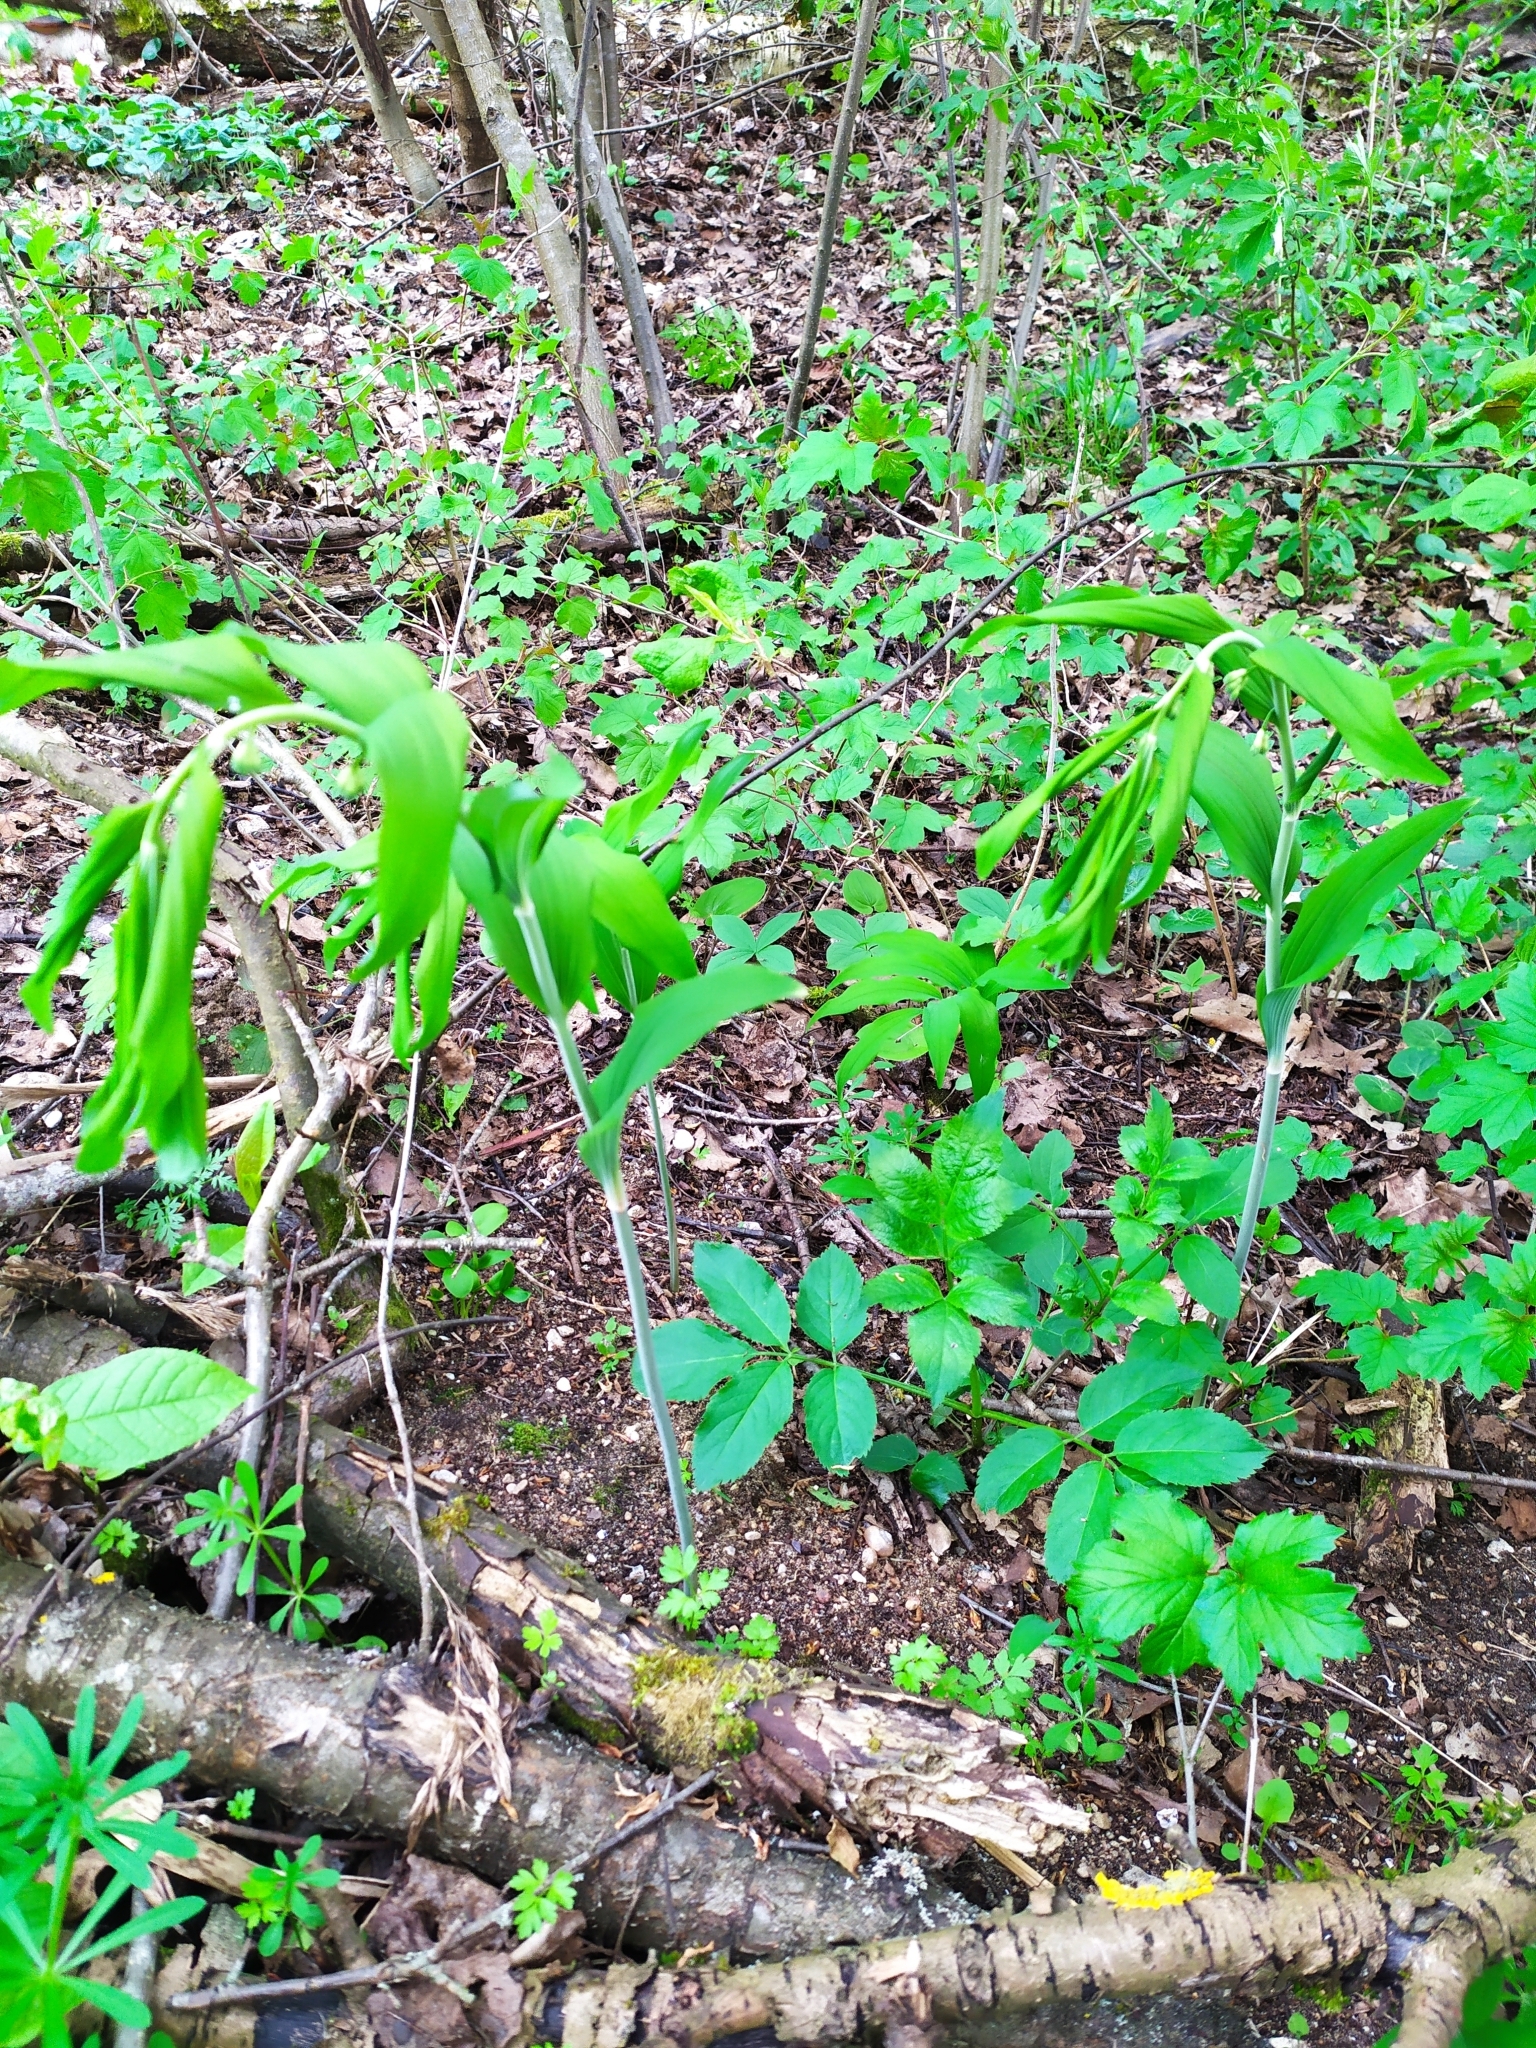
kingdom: Plantae
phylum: Tracheophyta
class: Liliopsida
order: Asparagales
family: Asparagaceae
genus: Polygonatum
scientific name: Polygonatum multiflorum
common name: Solomon's-seal
